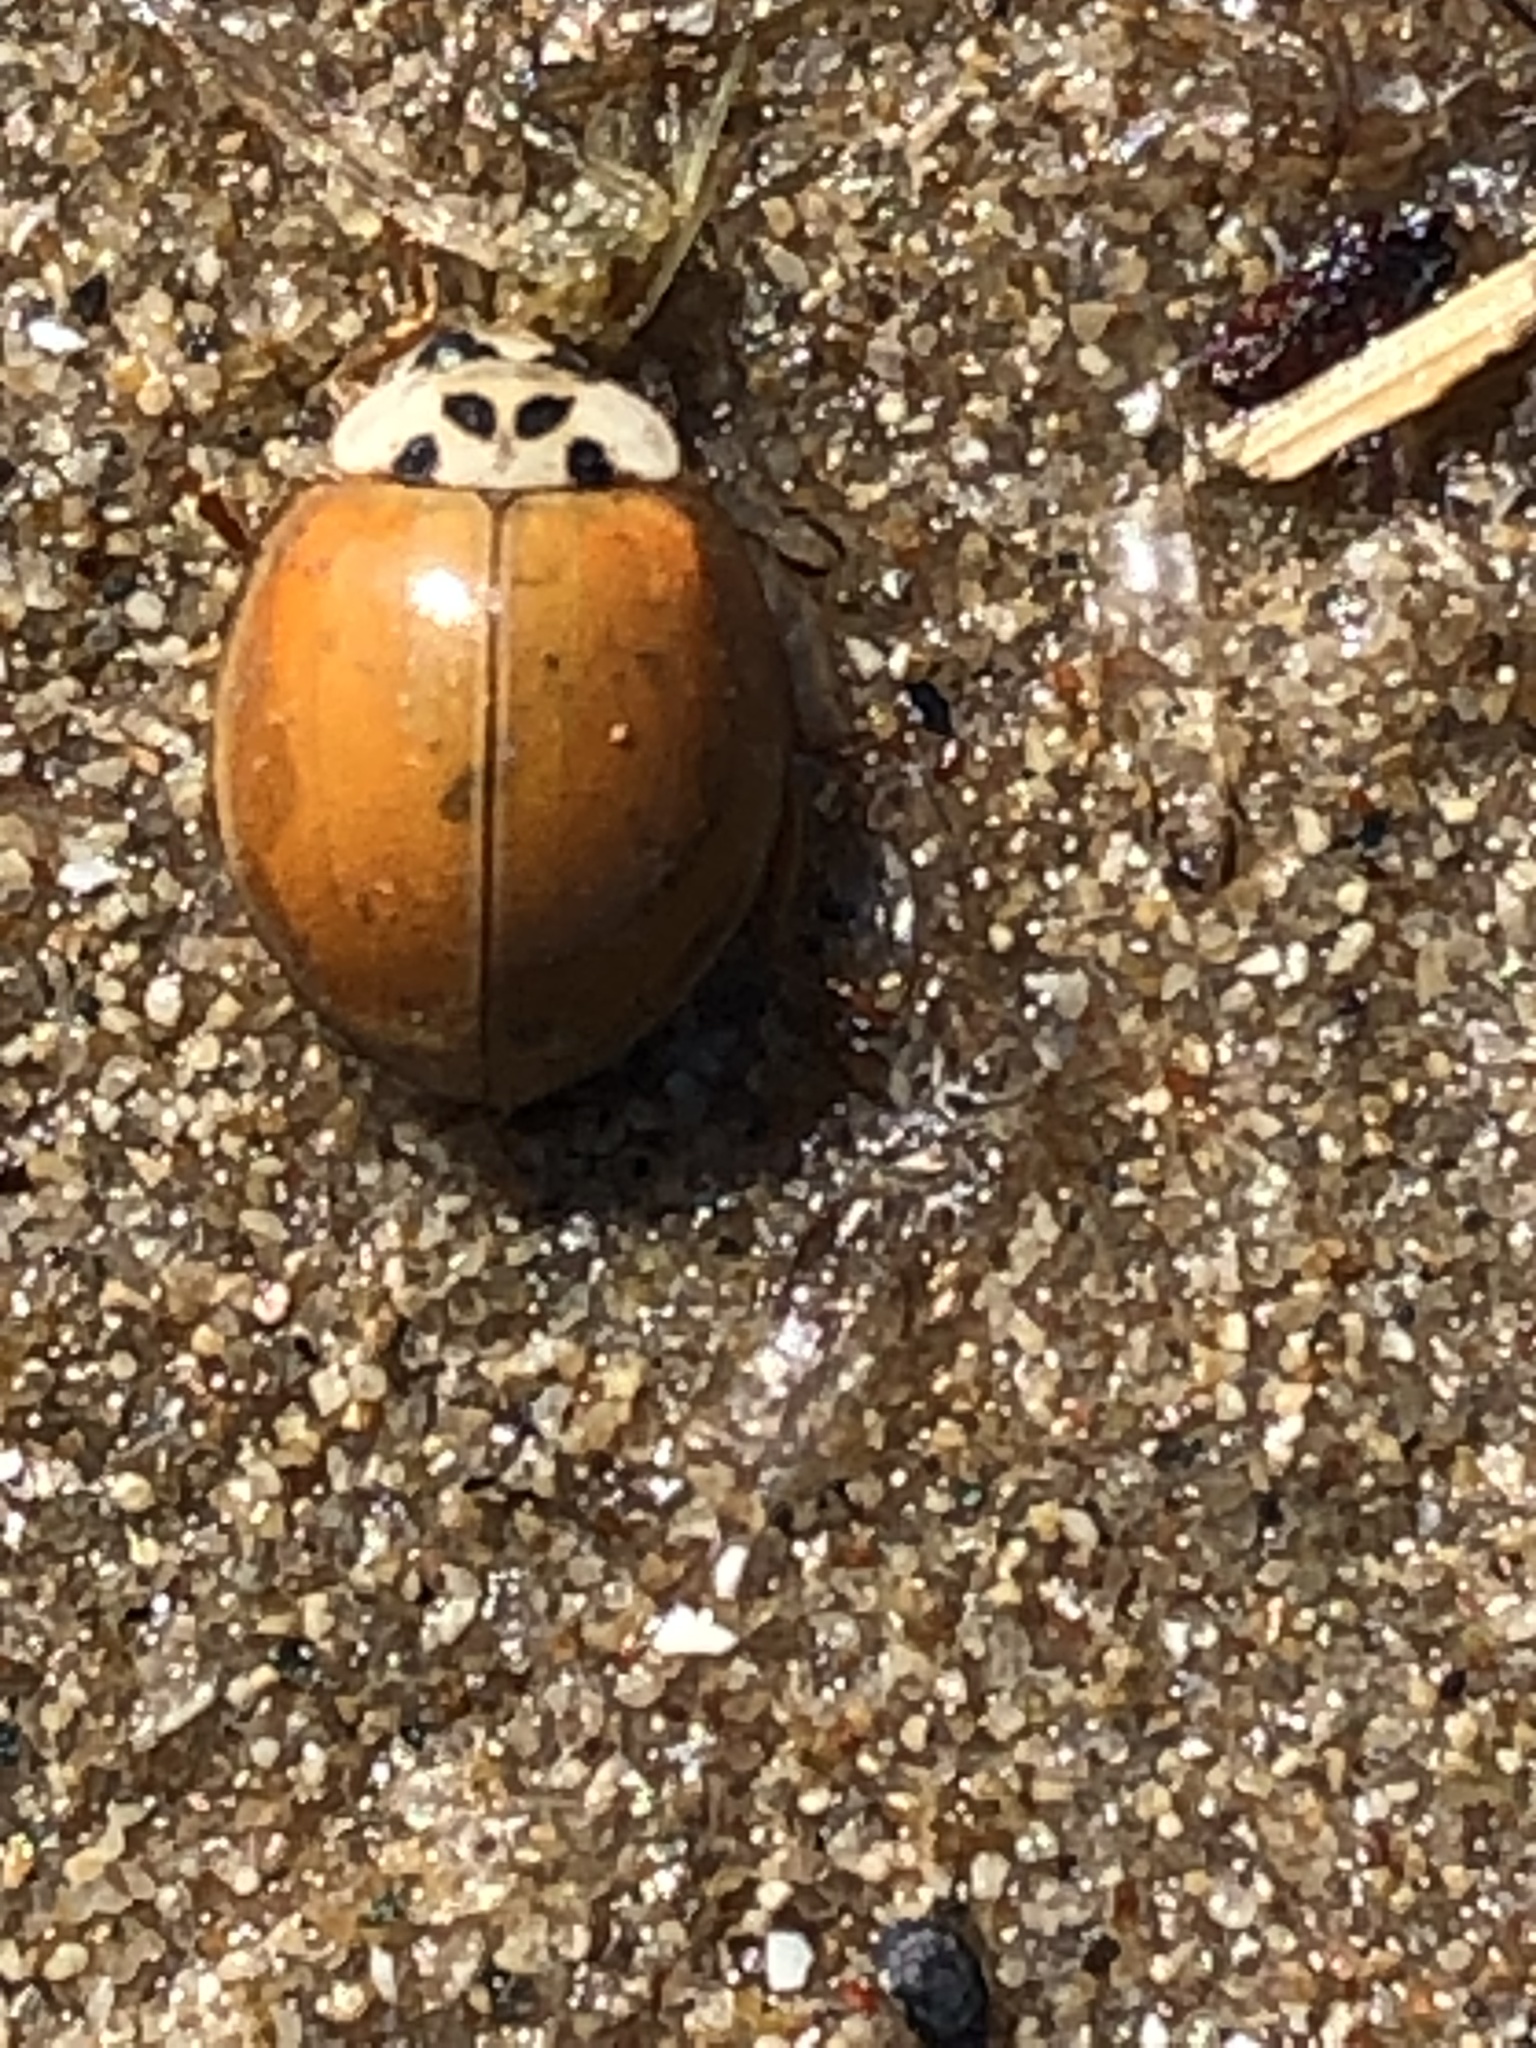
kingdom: Animalia
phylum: Arthropoda
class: Insecta
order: Coleoptera
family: Coccinellidae
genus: Harmonia
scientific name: Harmonia axyridis
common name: Harlequin ladybird
